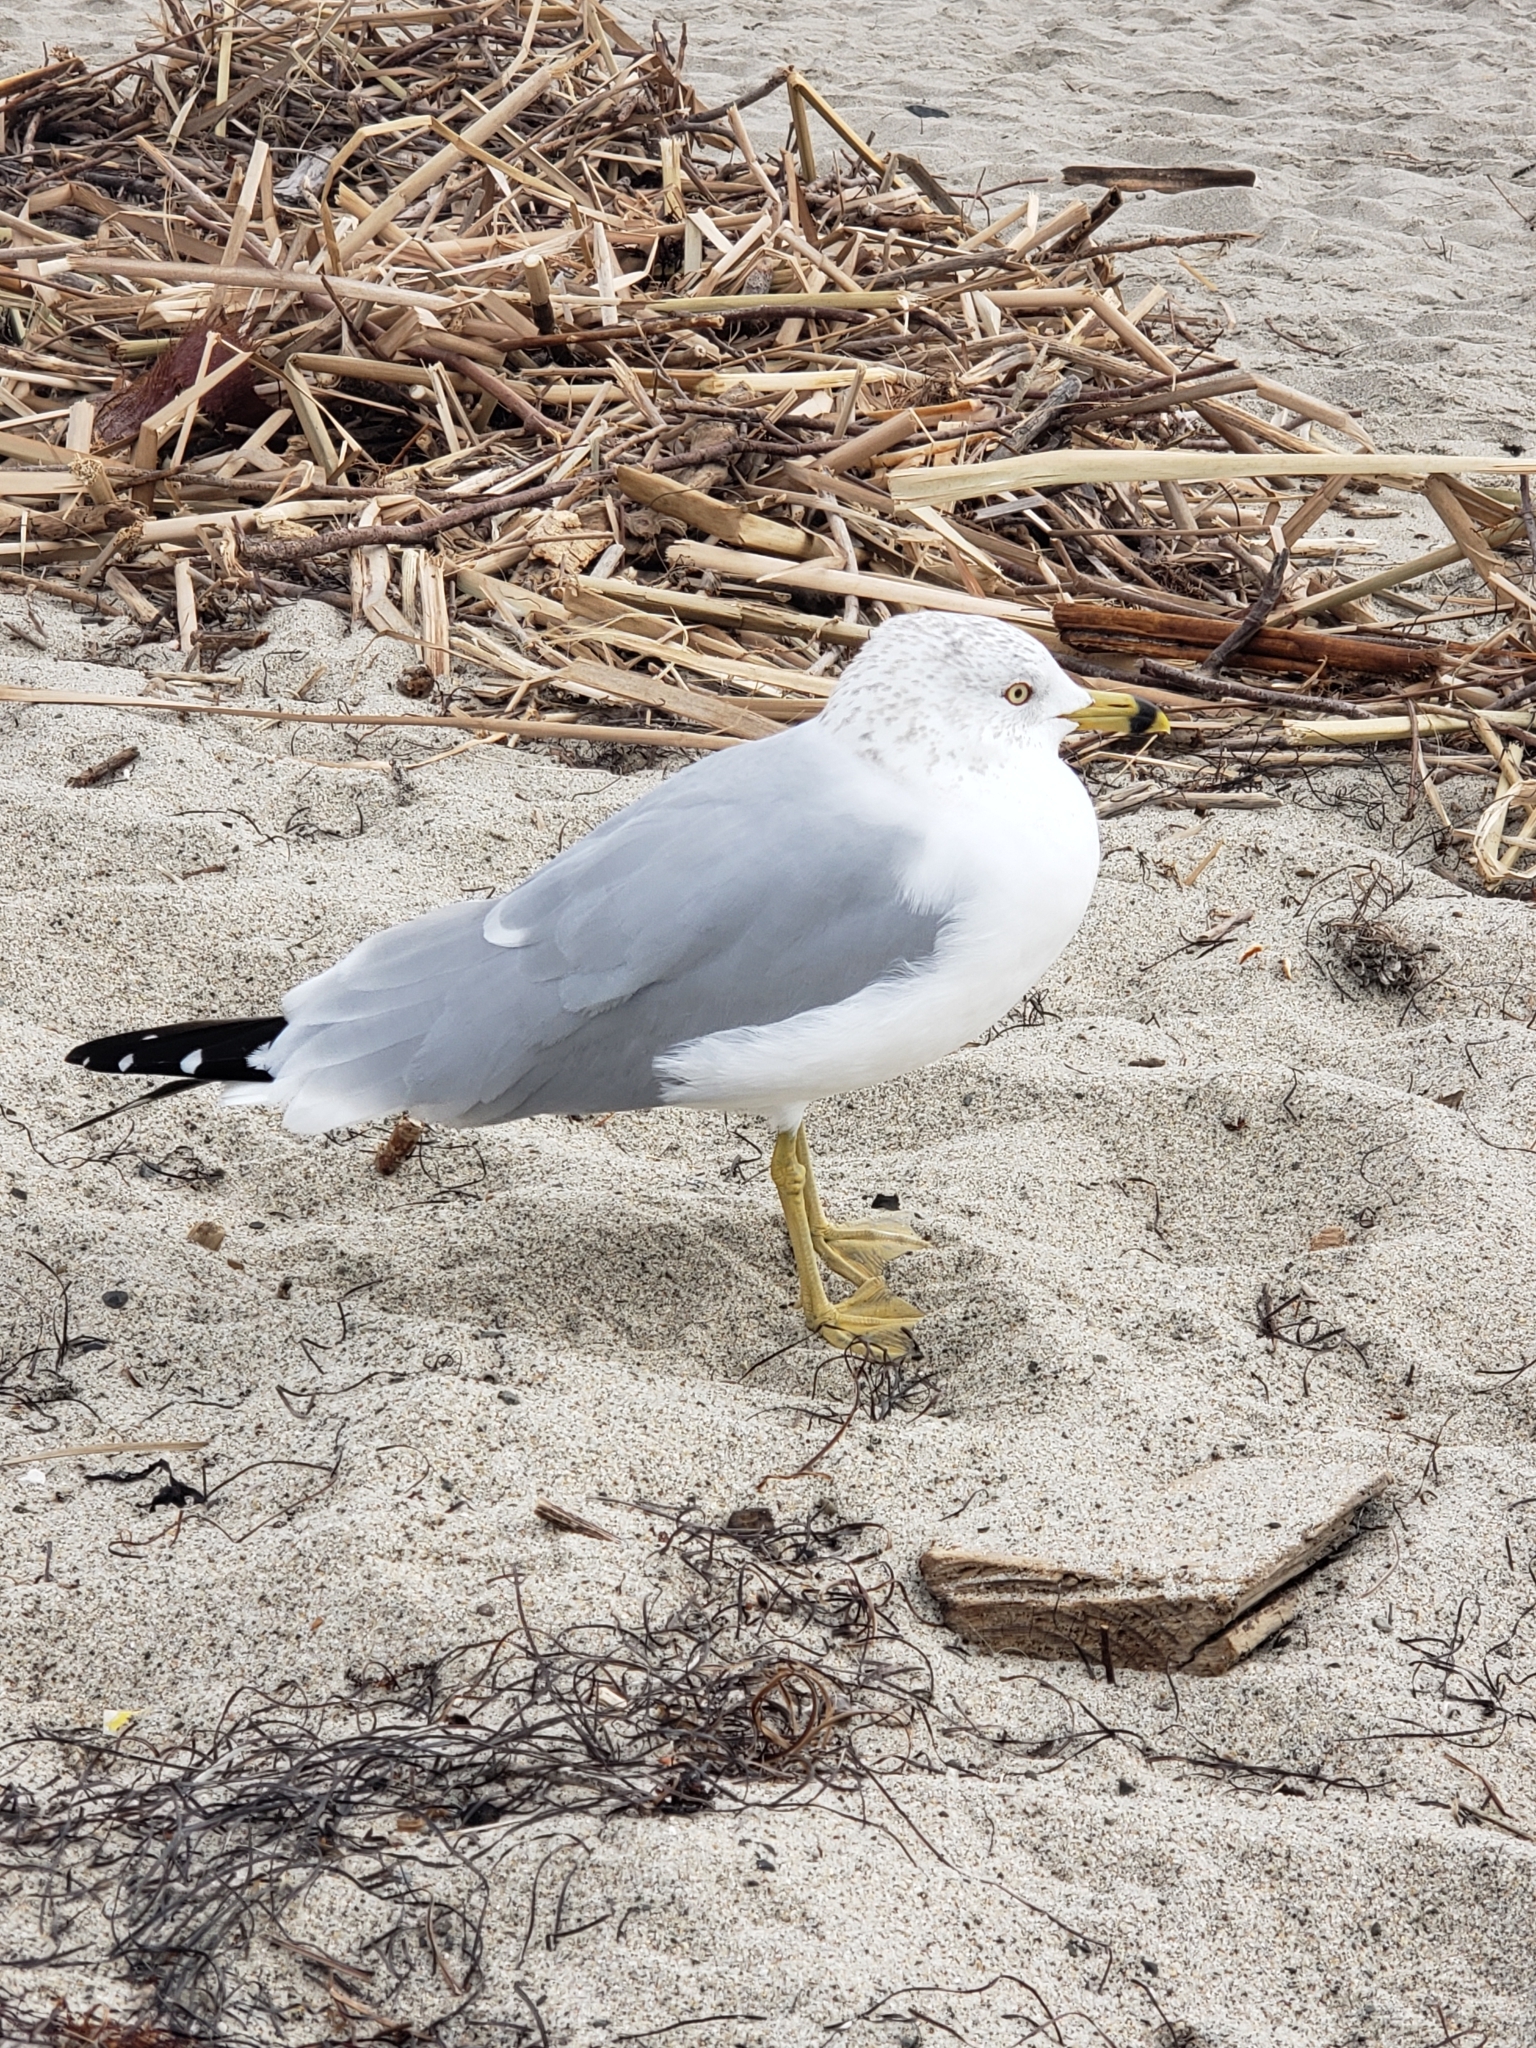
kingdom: Animalia
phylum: Chordata
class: Aves
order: Charadriiformes
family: Laridae
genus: Larus
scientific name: Larus delawarensis
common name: Ring-billed gull
